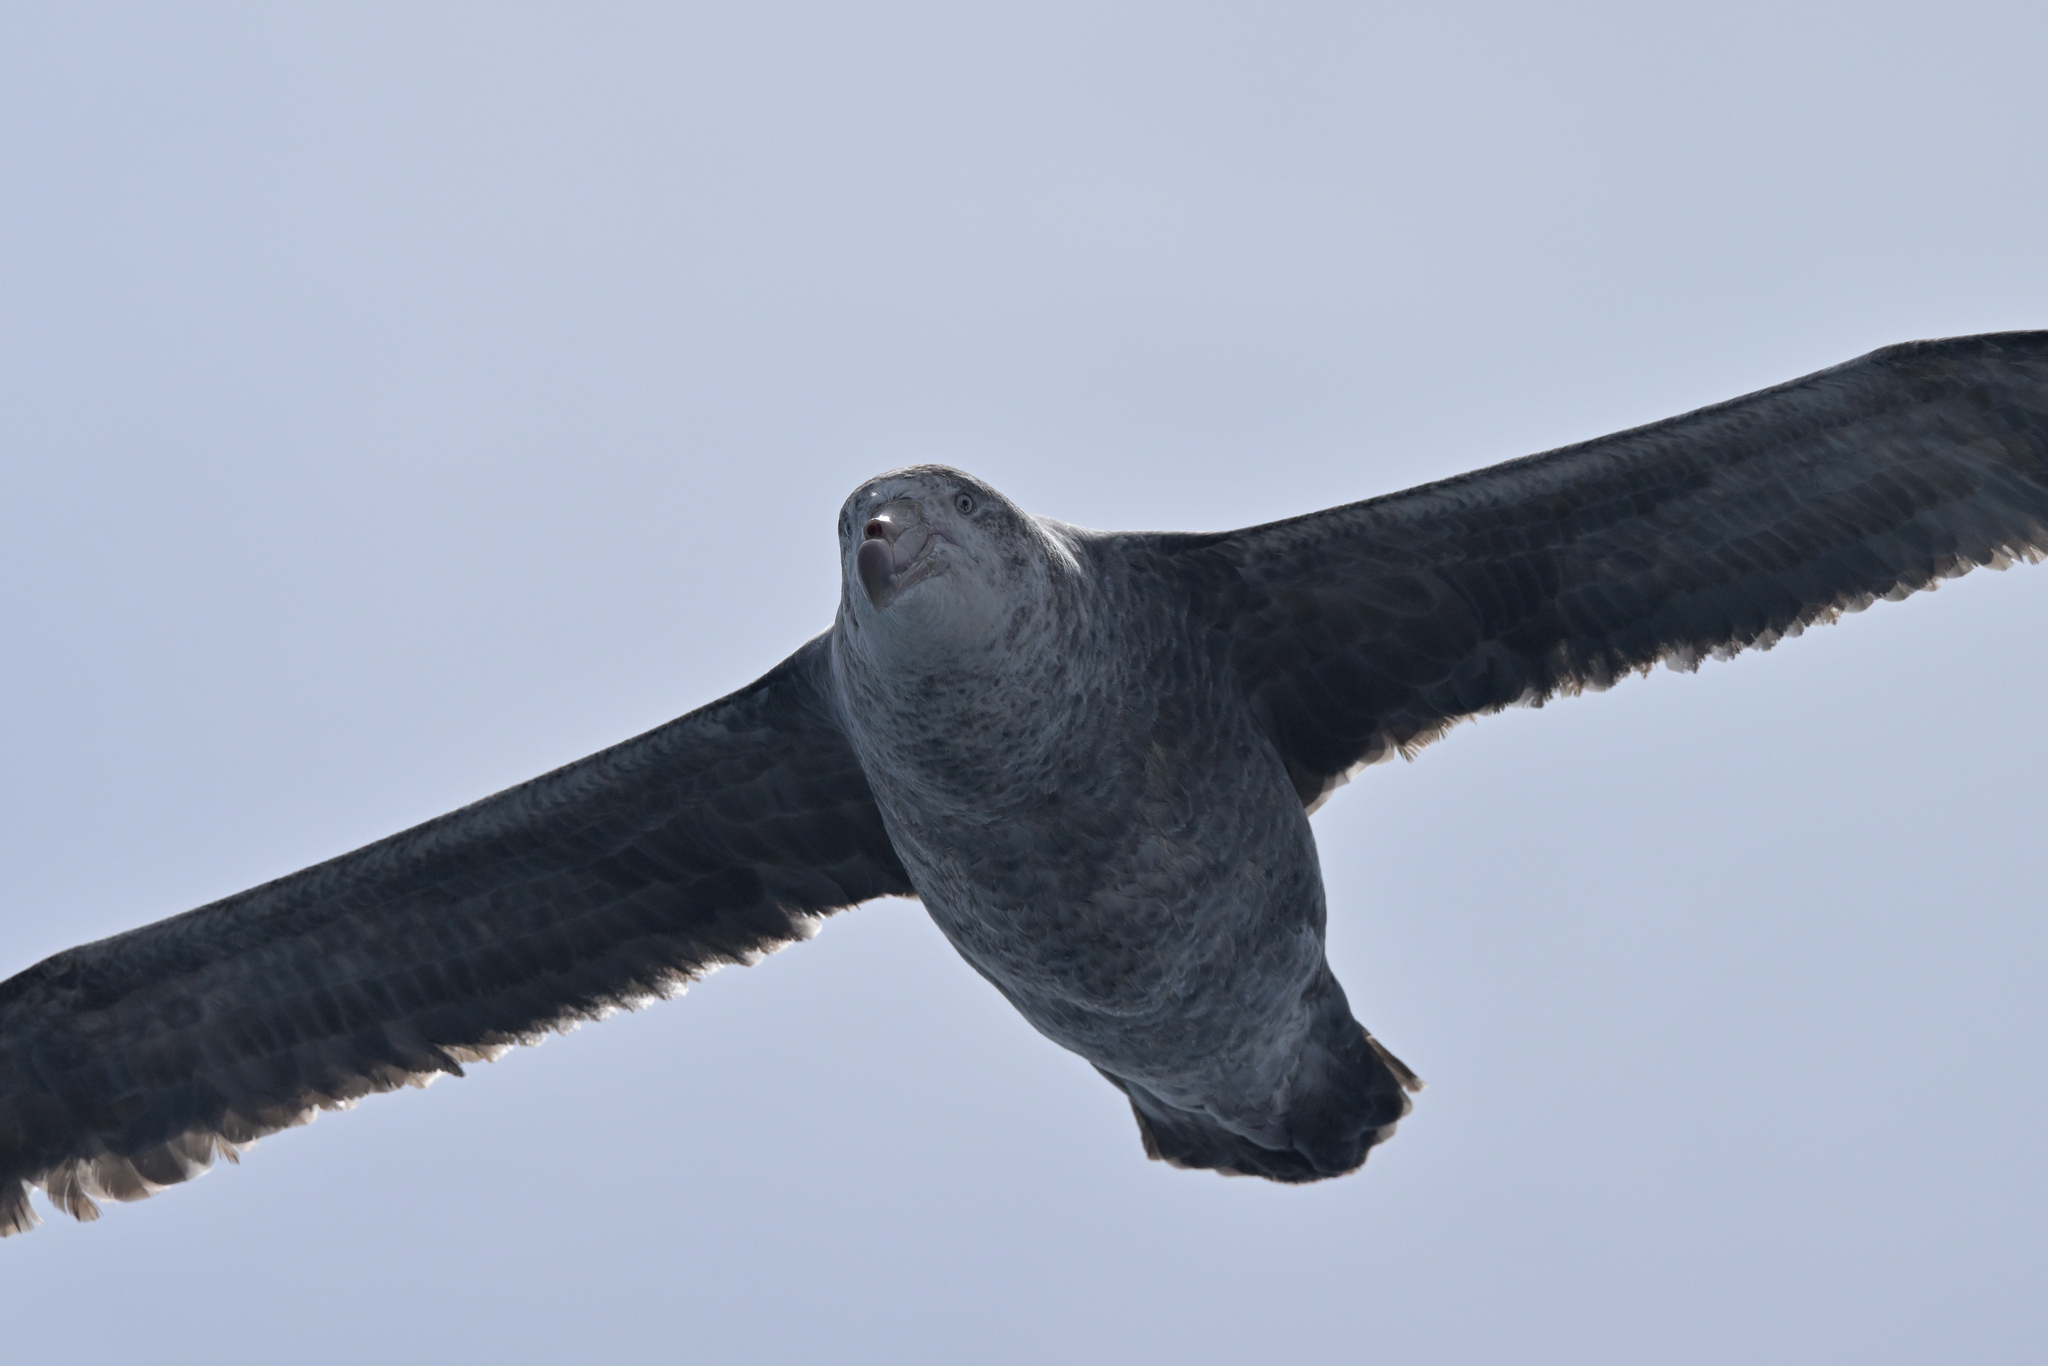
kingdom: Animalia
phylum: Chordata
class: Aves
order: Procellariiformes
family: Procellariidae
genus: Macronectes
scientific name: Macronectes halli
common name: Northern giant petrel
